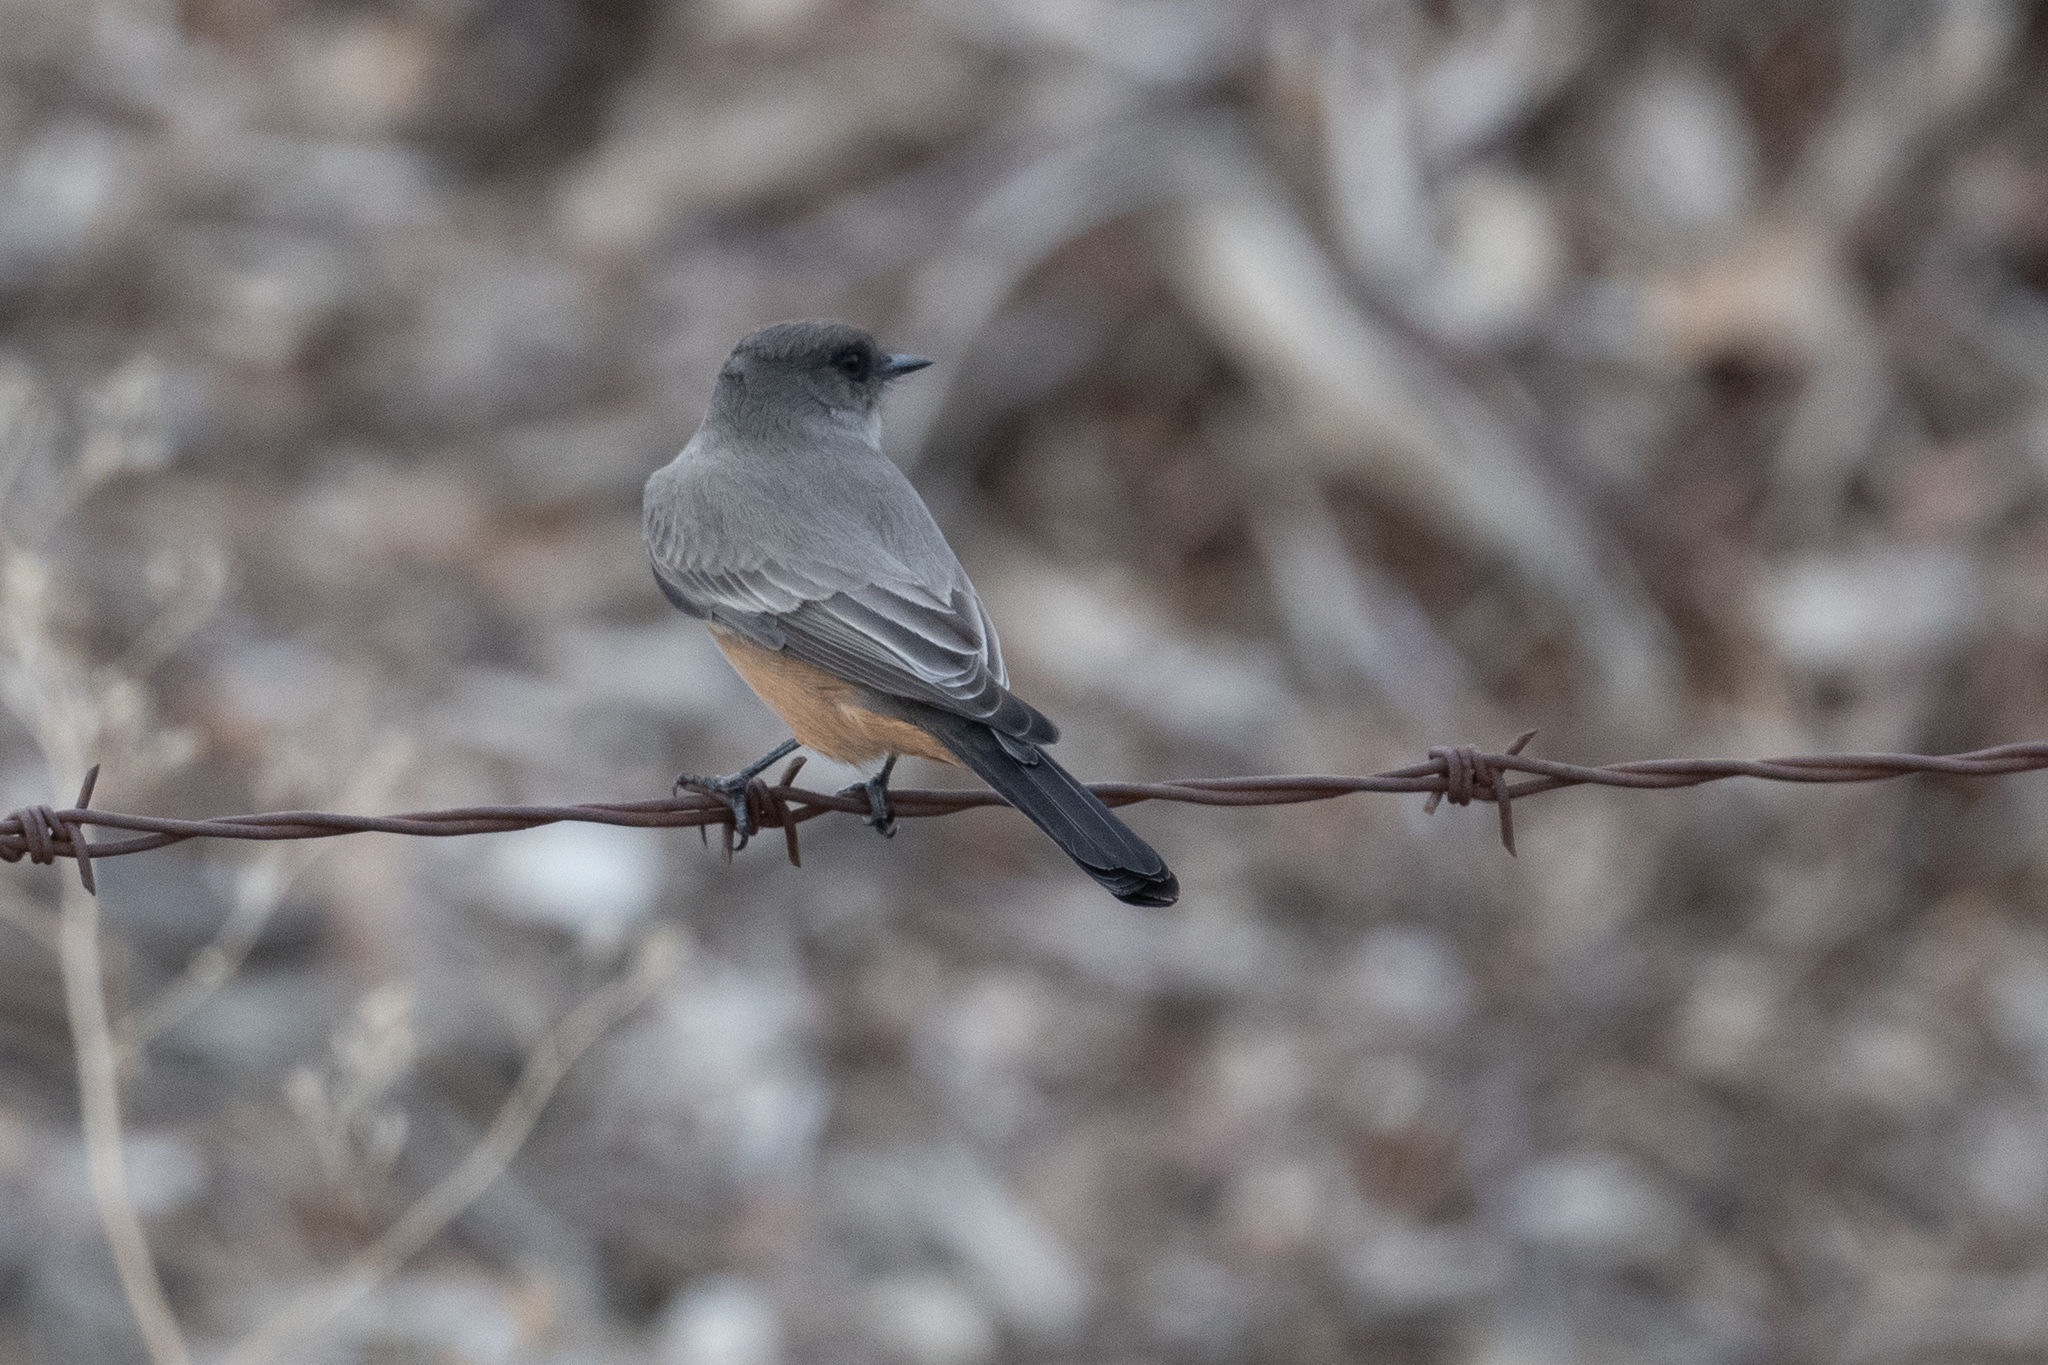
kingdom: Animalia
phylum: Chordata
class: Aves
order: Passeriformes
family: Tyrannidae
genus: Sayornis
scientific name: Sayornis saya
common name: Say's phoebe
